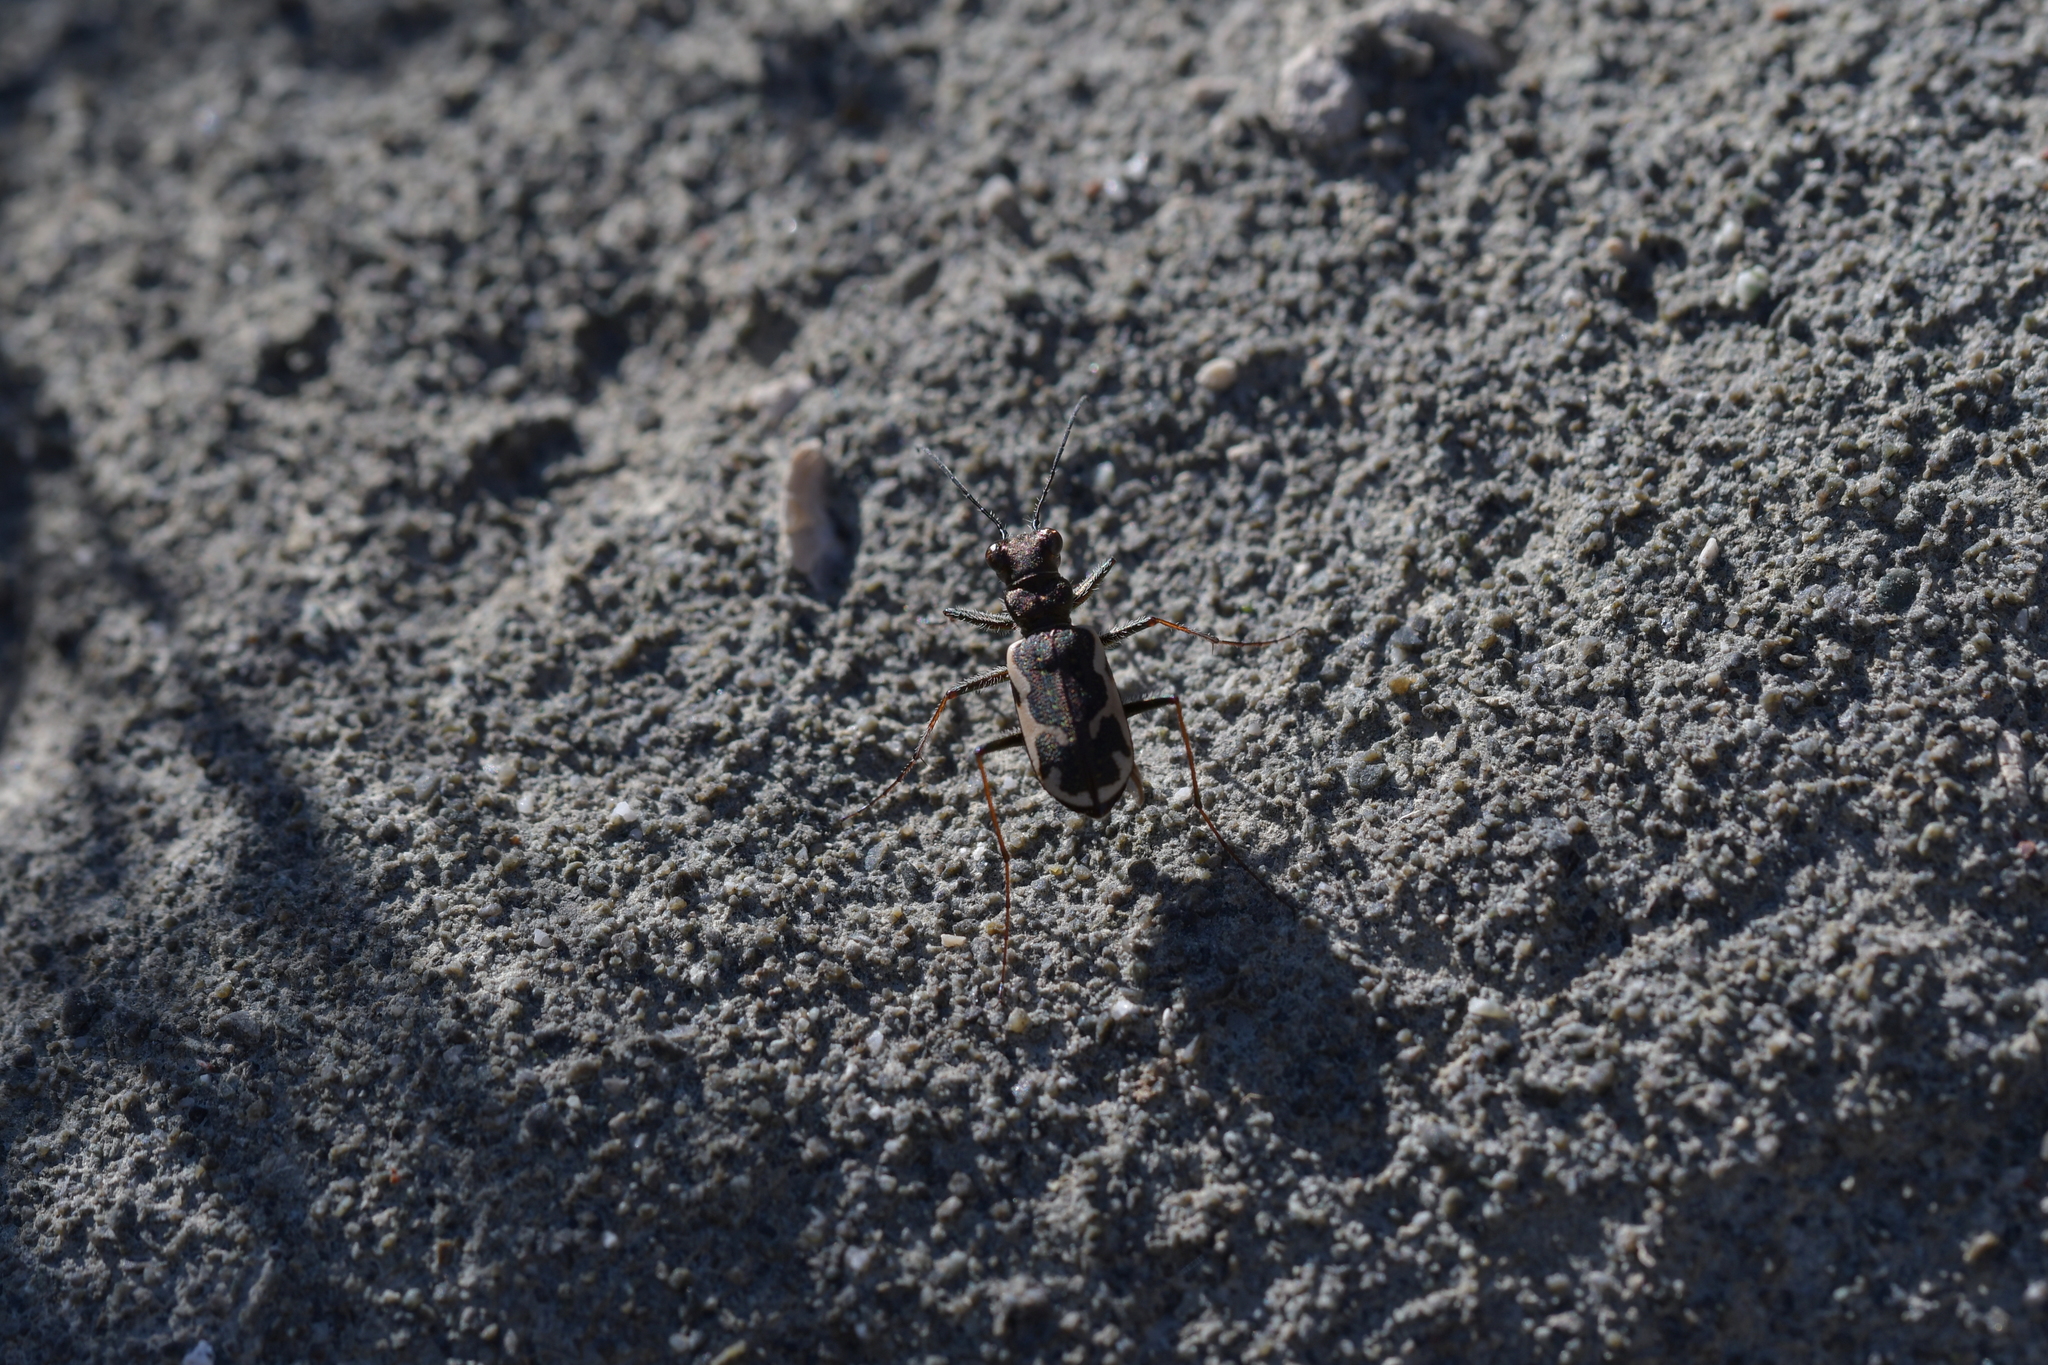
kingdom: Animalia
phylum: Arthropoda
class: Insecta
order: Coleoptera
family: Carabidae
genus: Neocicindela
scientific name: Neocicindela tuberculata
